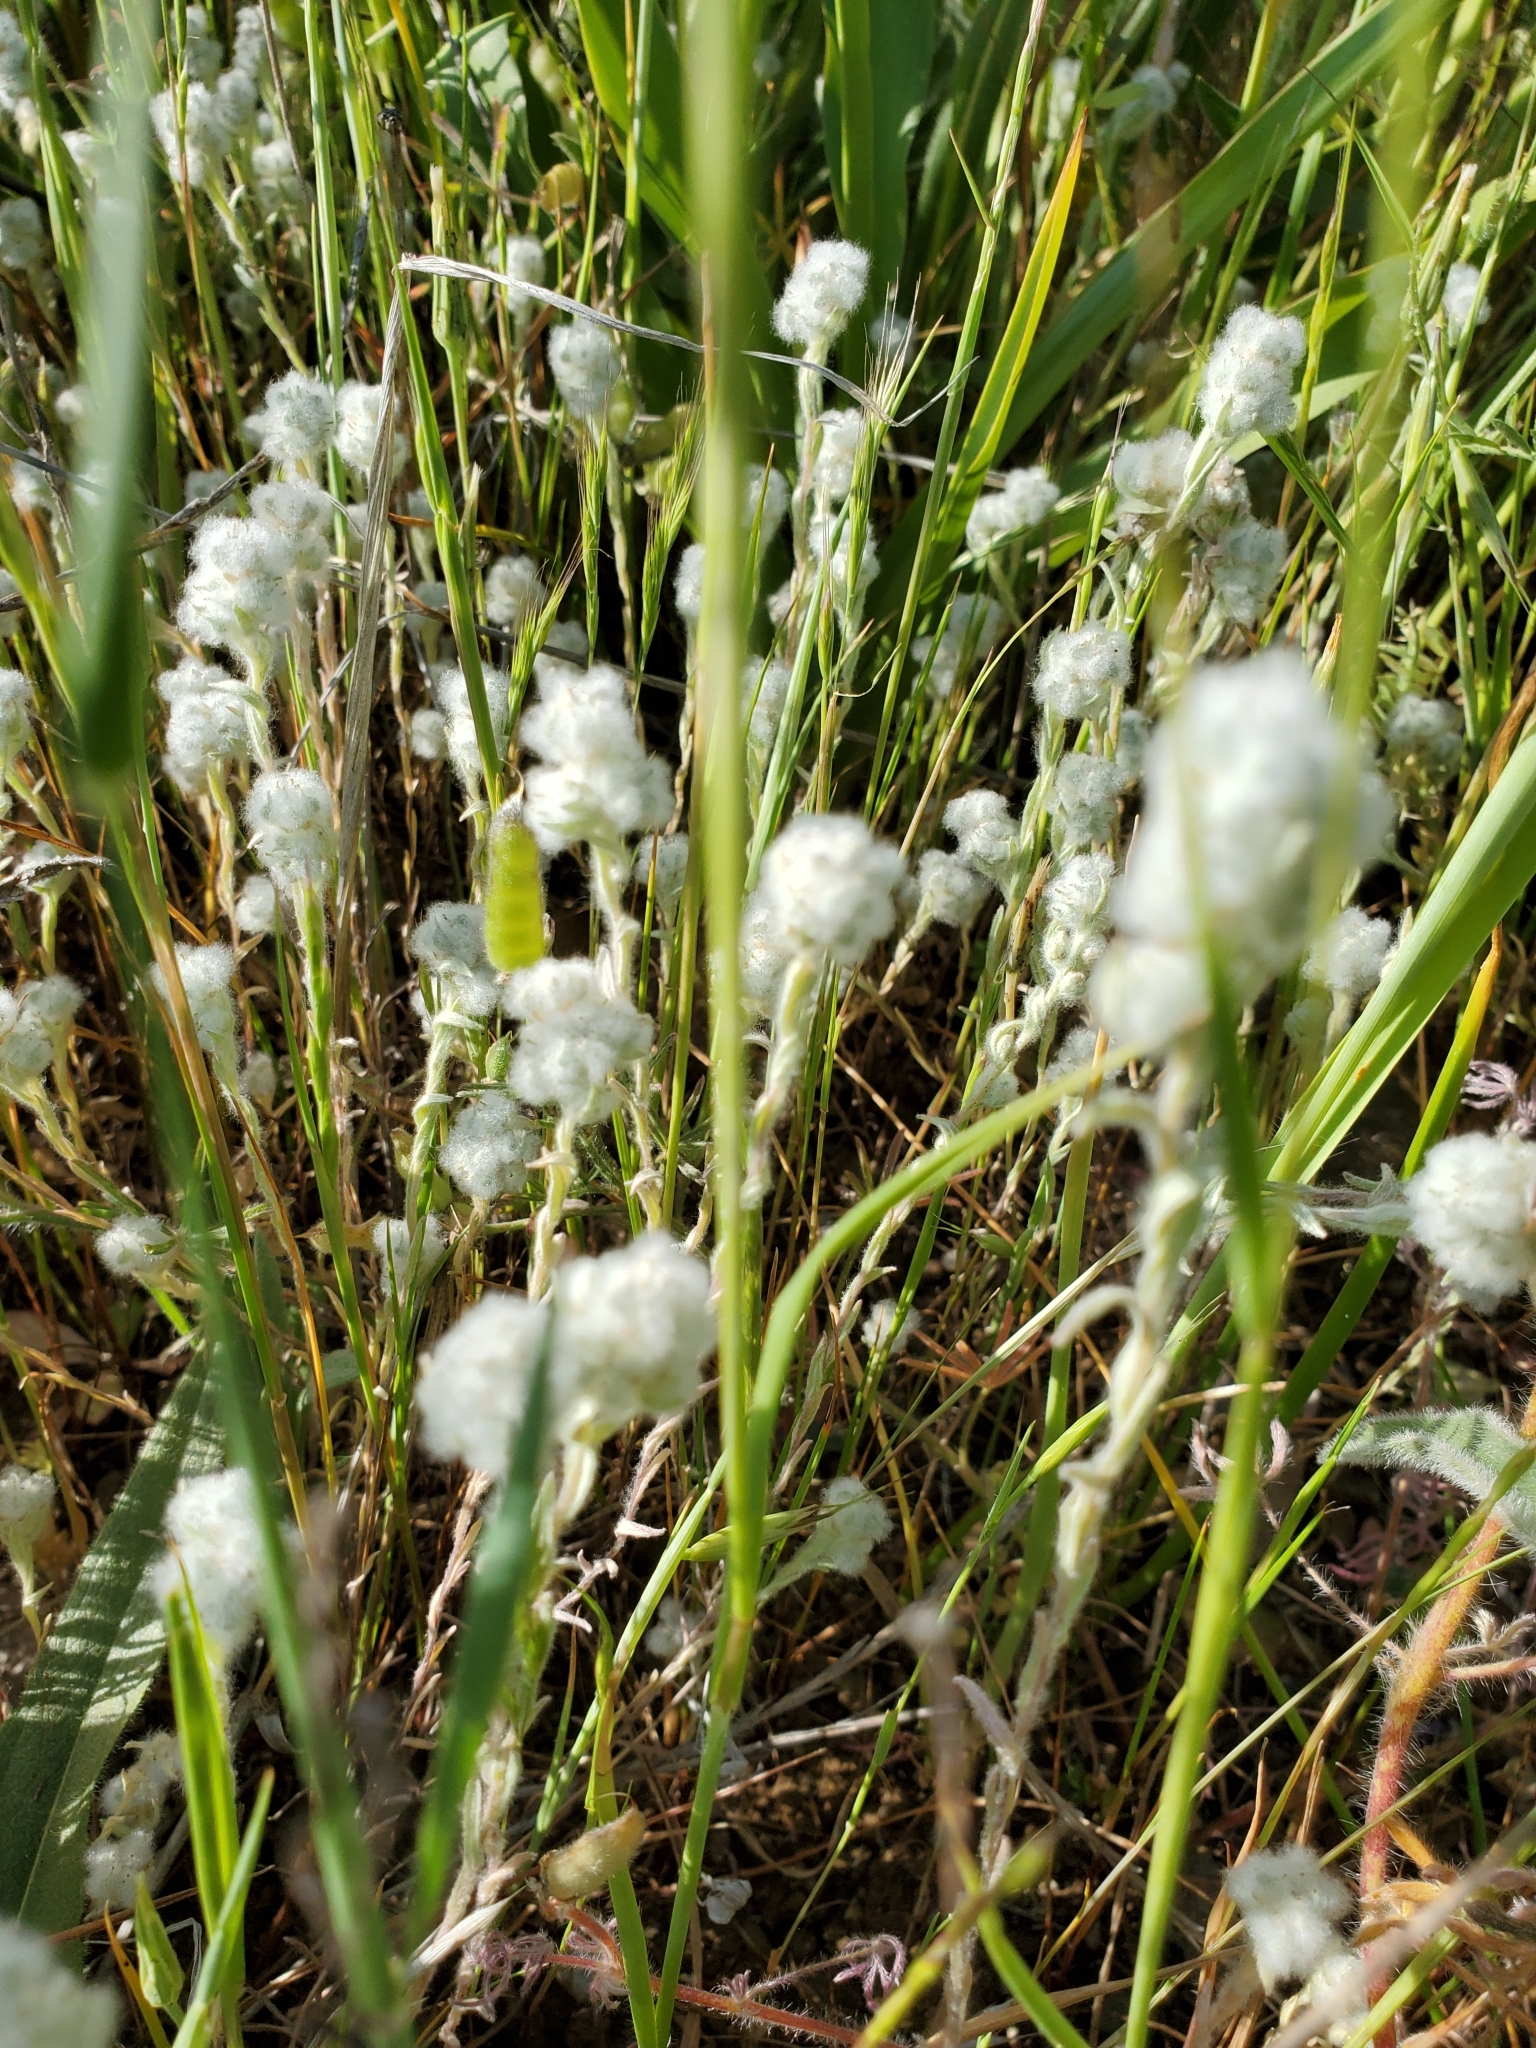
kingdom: Plantae
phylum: Tracheophyta
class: Magnoliopsida
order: Asterales
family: Asteraceae
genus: Bombycilaena
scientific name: Bombycilaena californica
